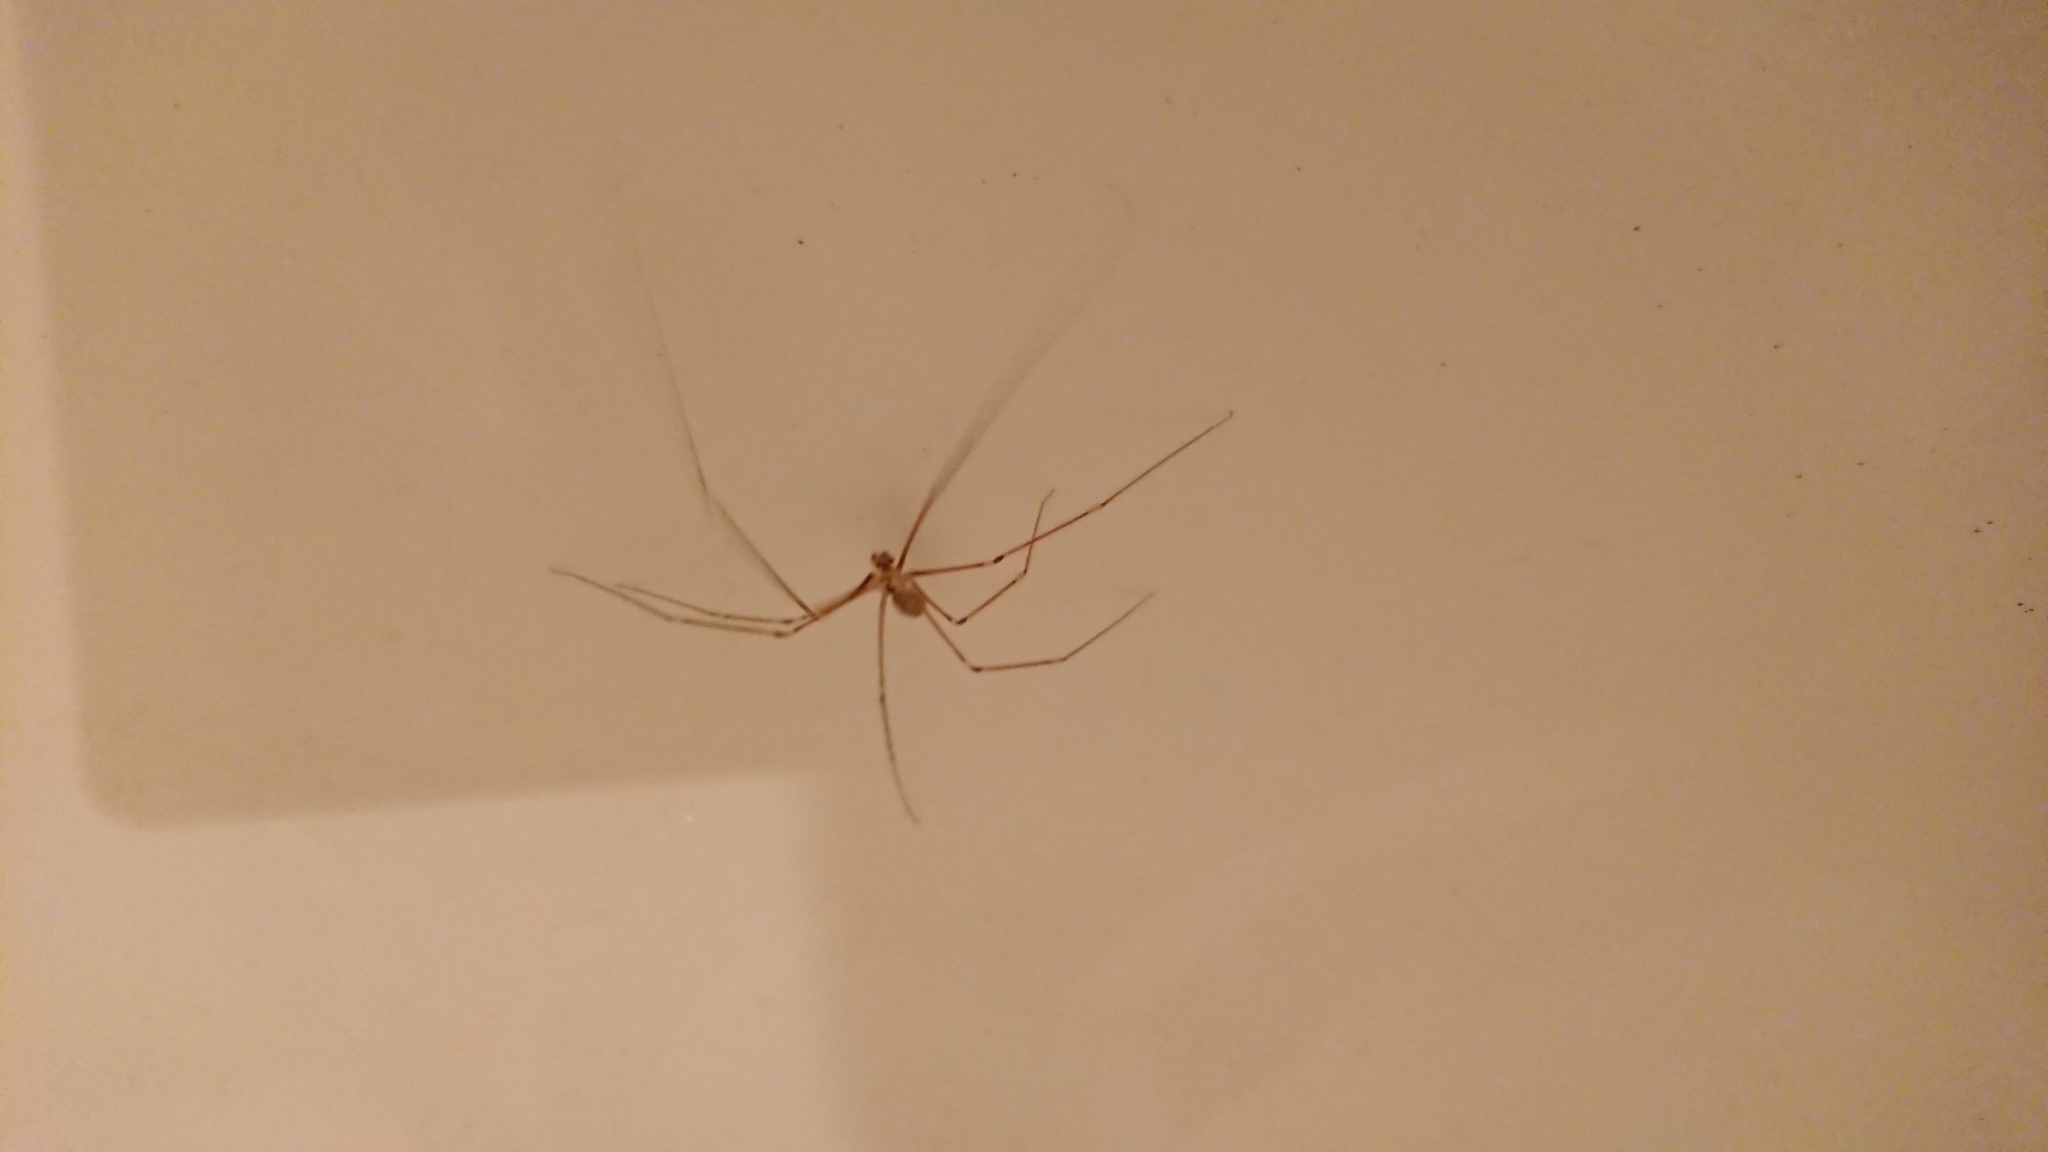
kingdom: Animalia
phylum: Arthropoda
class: Arachnida
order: Araneae
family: Pholcidae
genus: Pholcus
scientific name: Pholcus phalangioides
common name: Longbodied cellar spider
